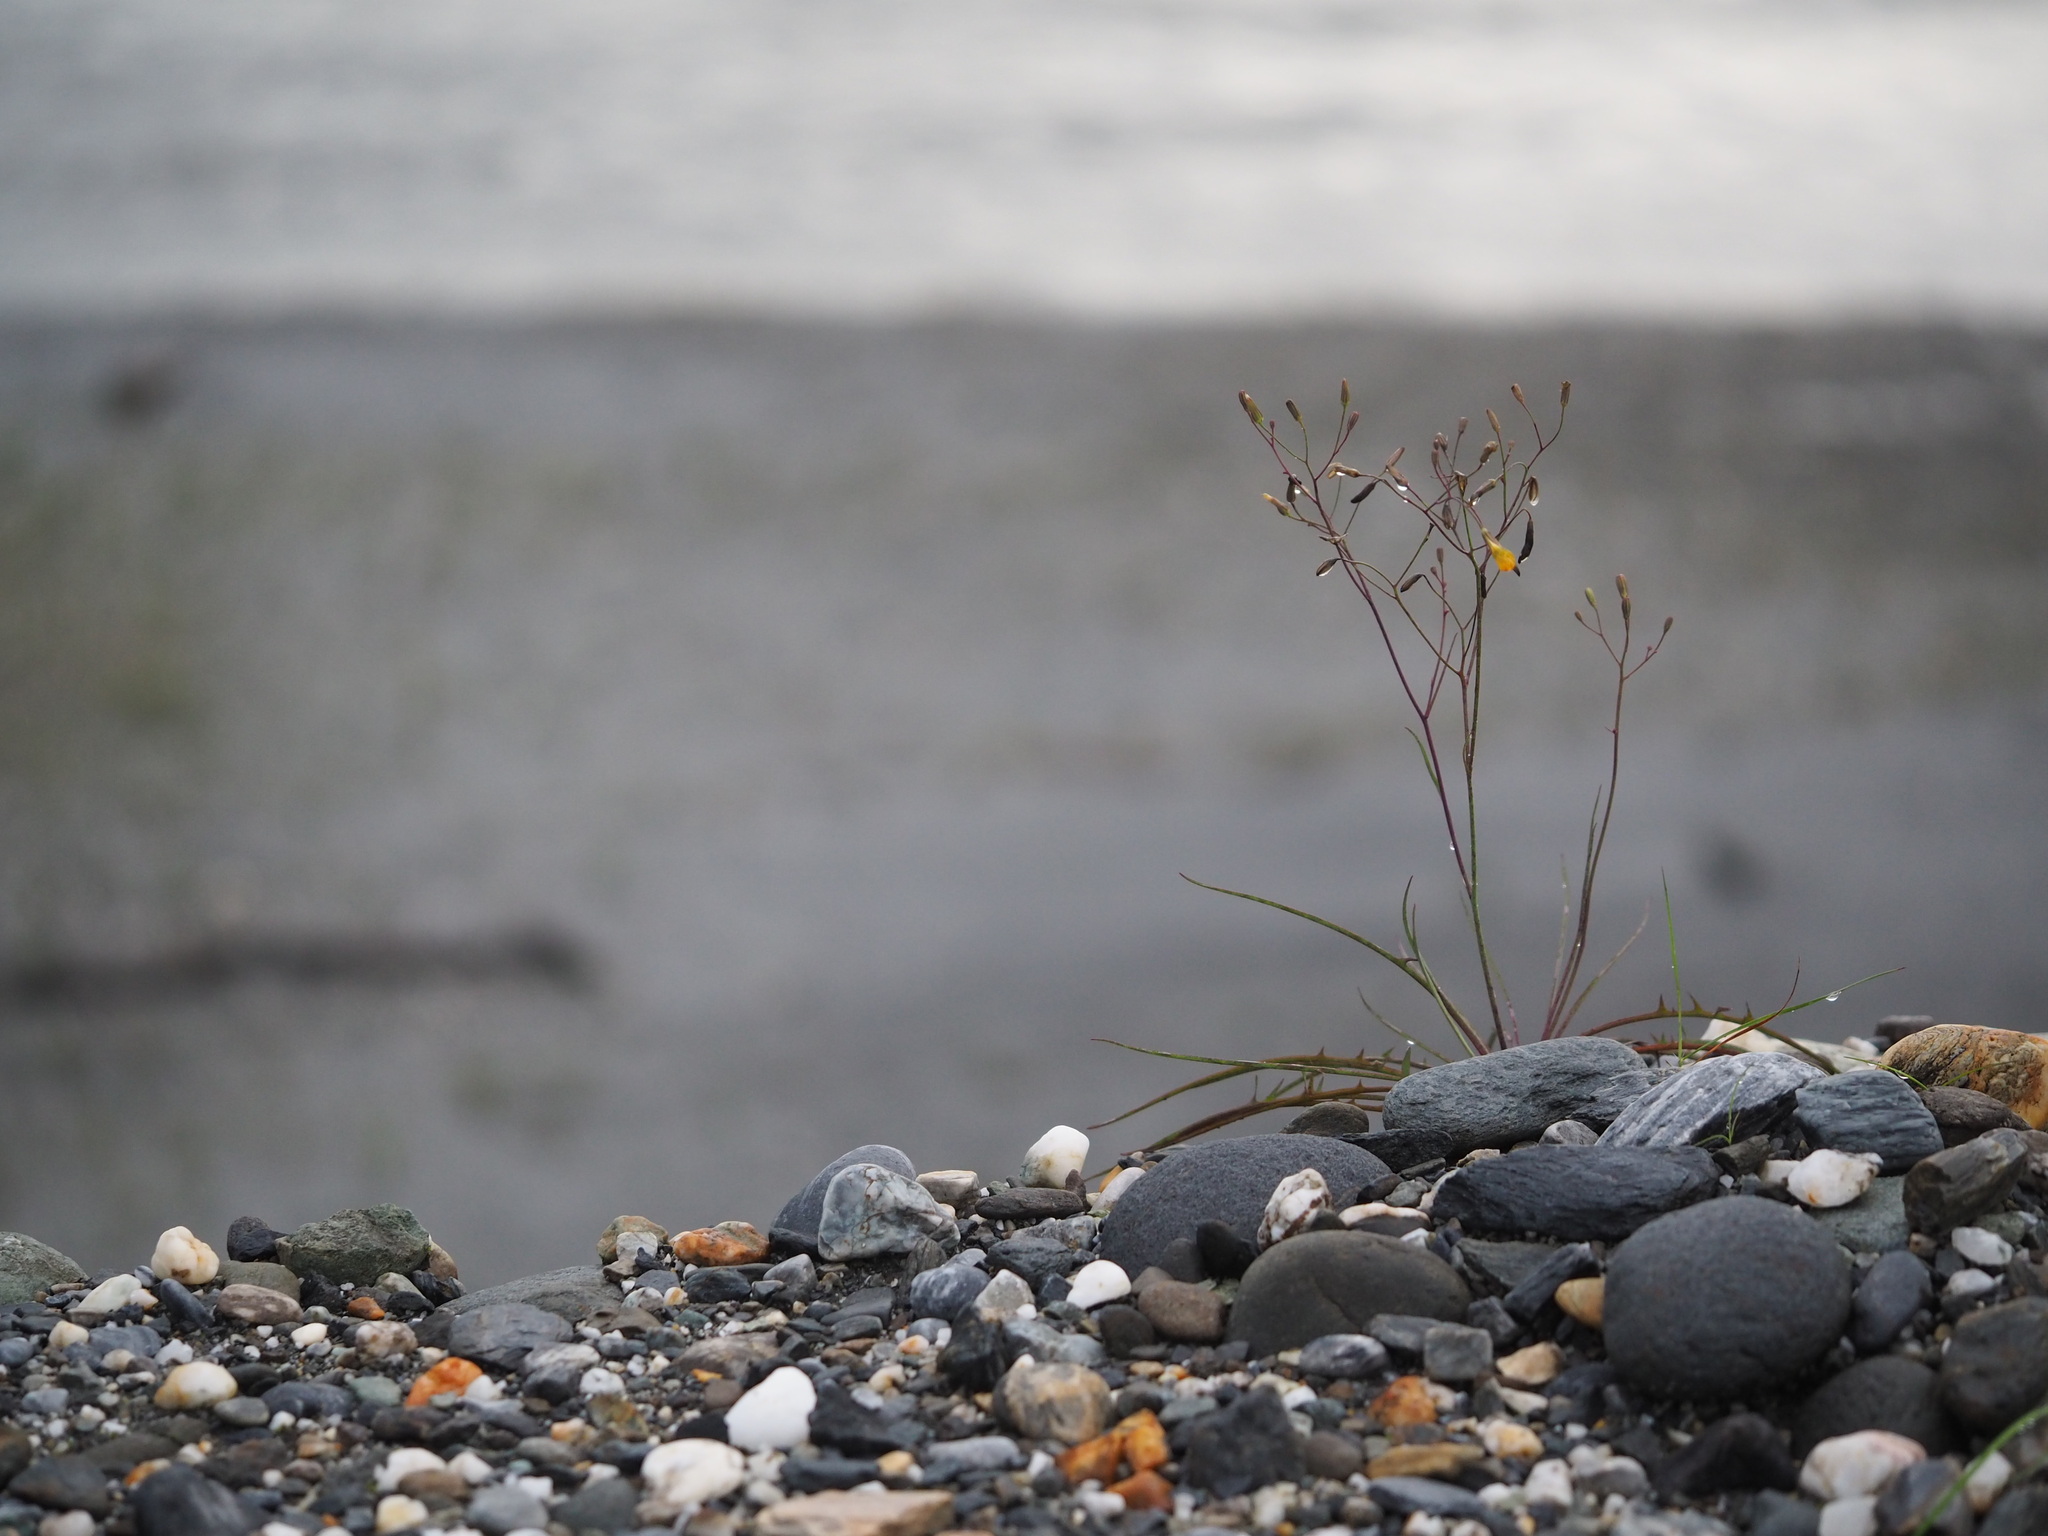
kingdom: Plantae
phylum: Tracheophyta
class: Magnoliopsida
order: Asterales
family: Asteraceae
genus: Ixeris
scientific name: Ixeris tamagawaensis
